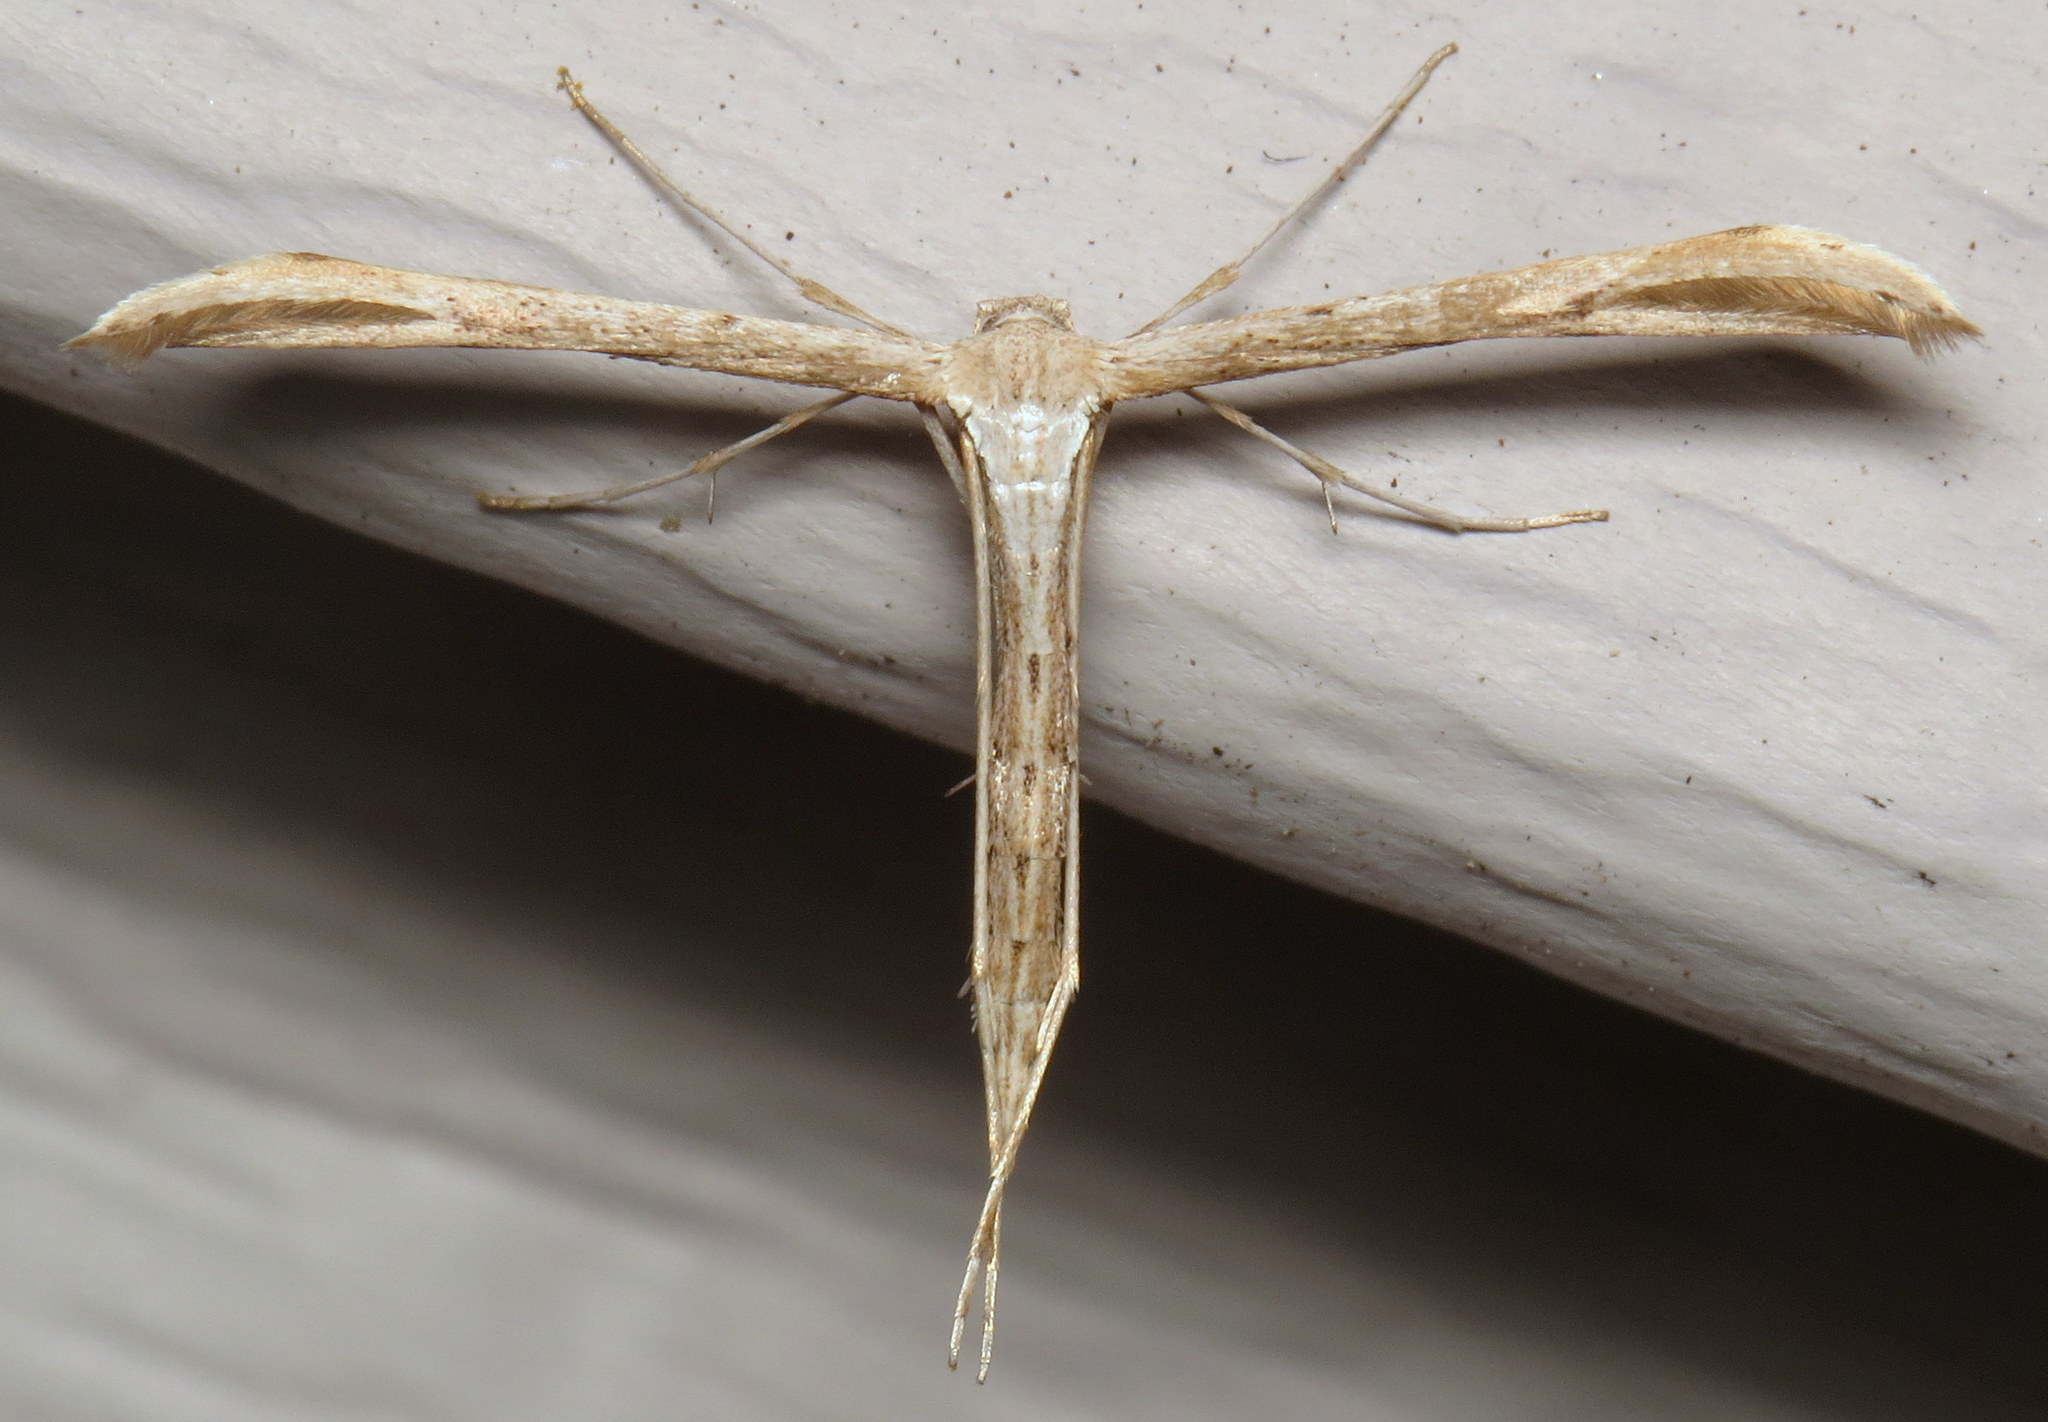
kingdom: Animalia
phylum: Arthropoda
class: Insecta
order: Lepidoptera
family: Pterophoridae
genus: Emmelina
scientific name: Emmelina monodactyla
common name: Common plume
